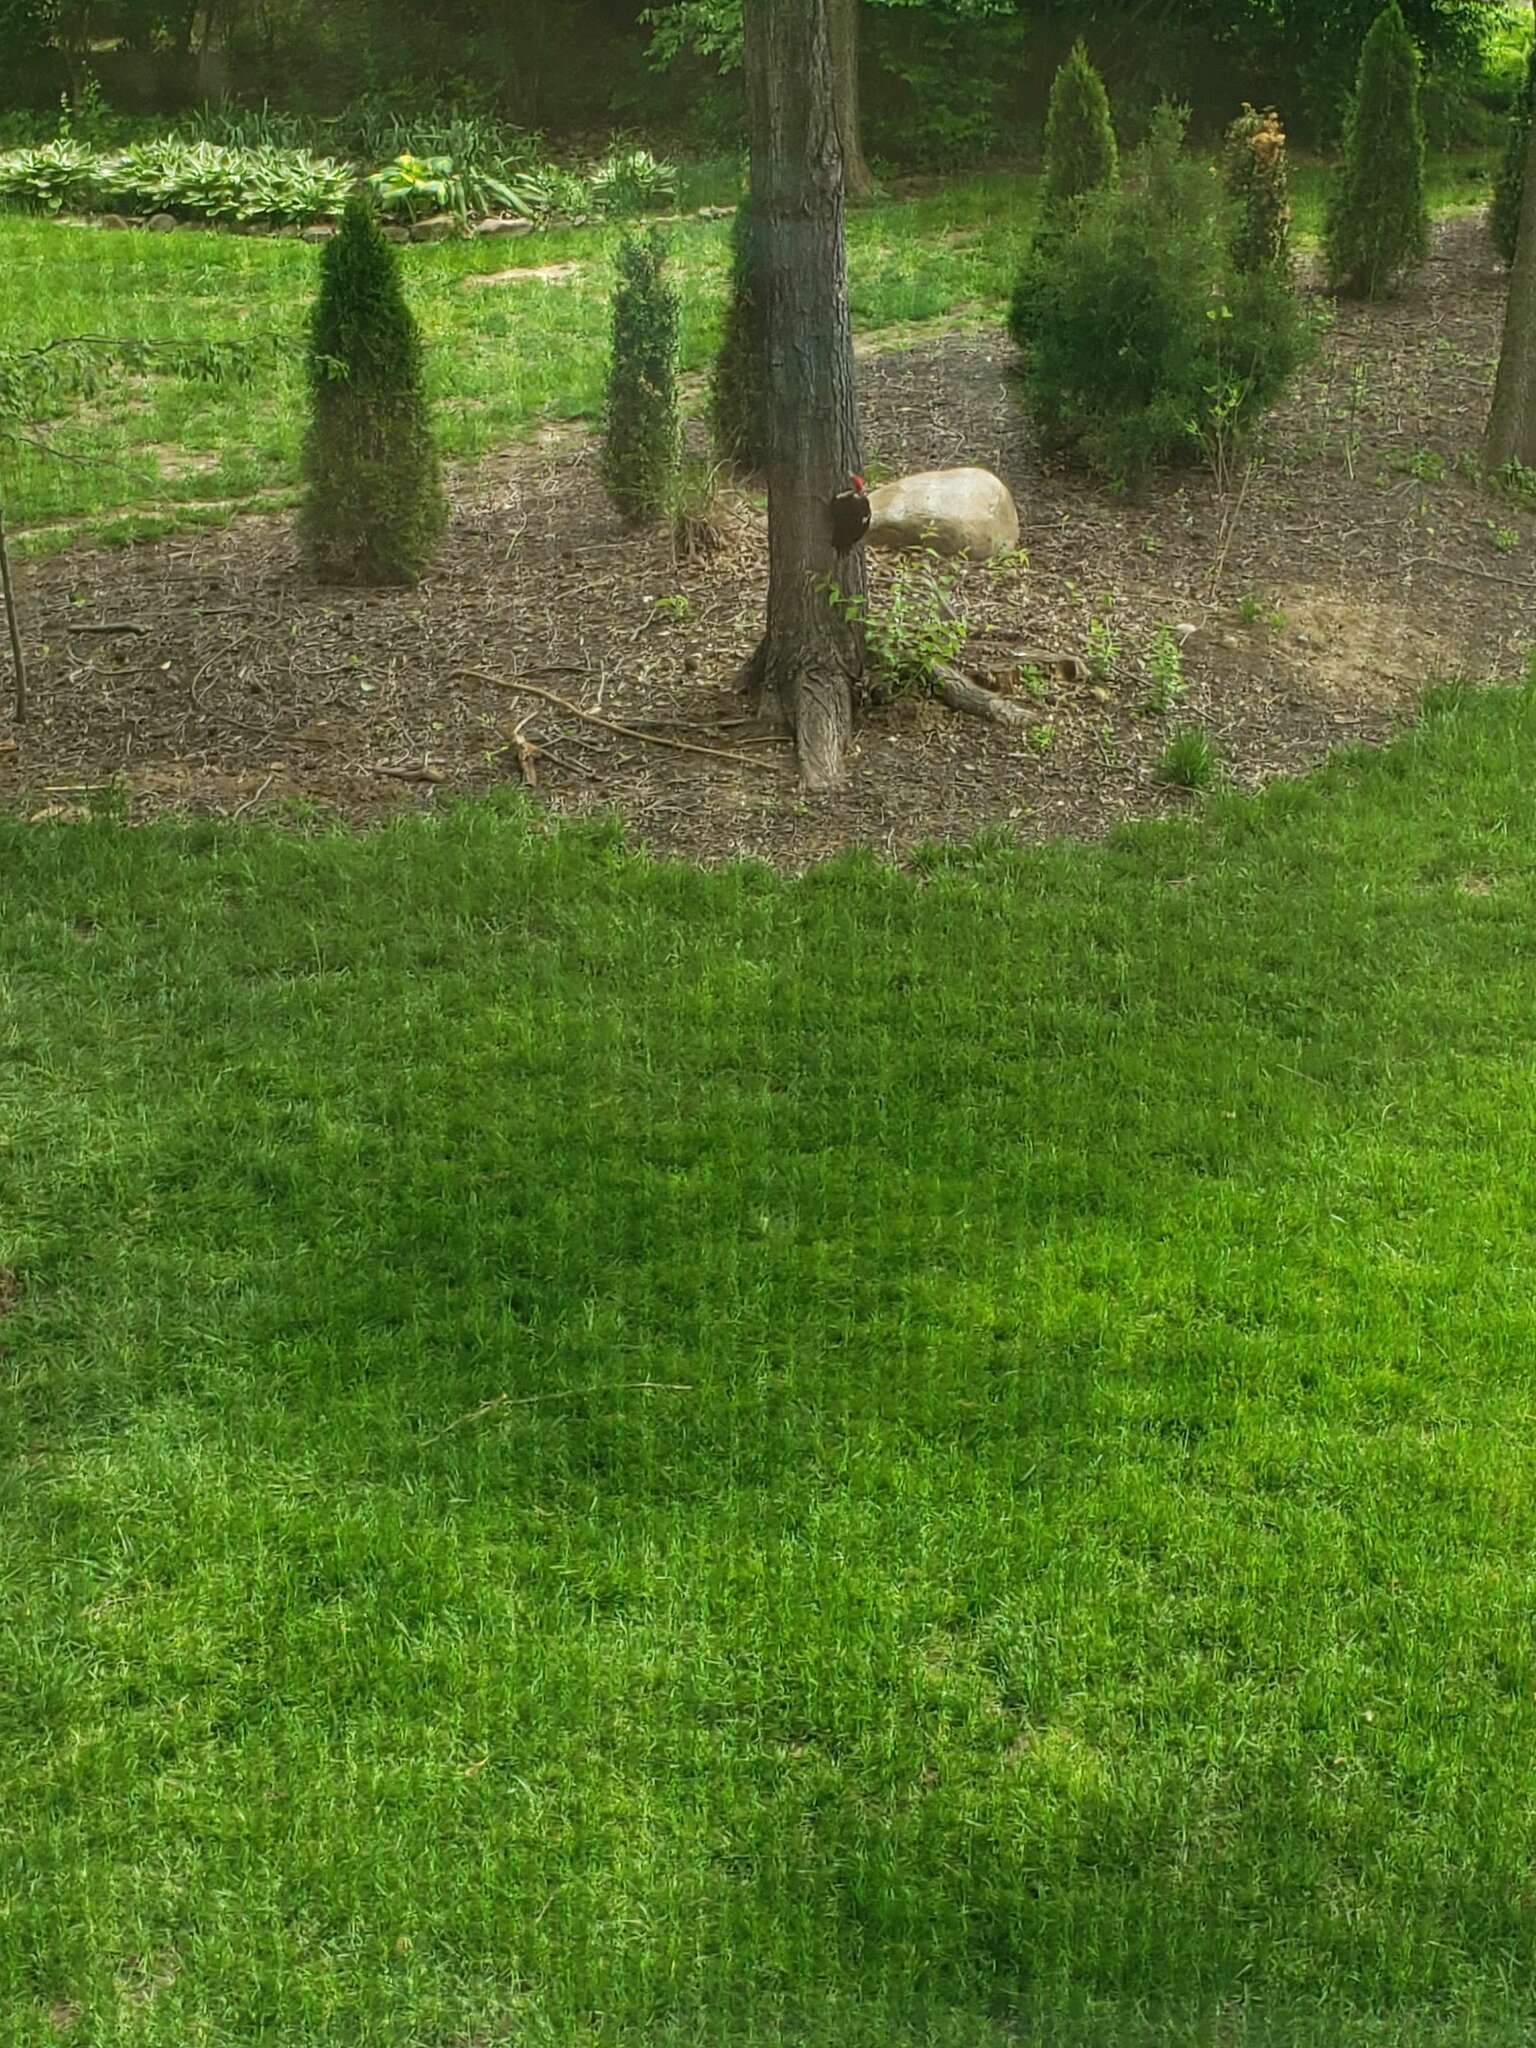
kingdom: Animalia
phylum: Chordata
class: Aves
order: Piciformes
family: Picidae
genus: Dryocopus
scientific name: Dryocopus pileatus
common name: Pileated woodpecker
